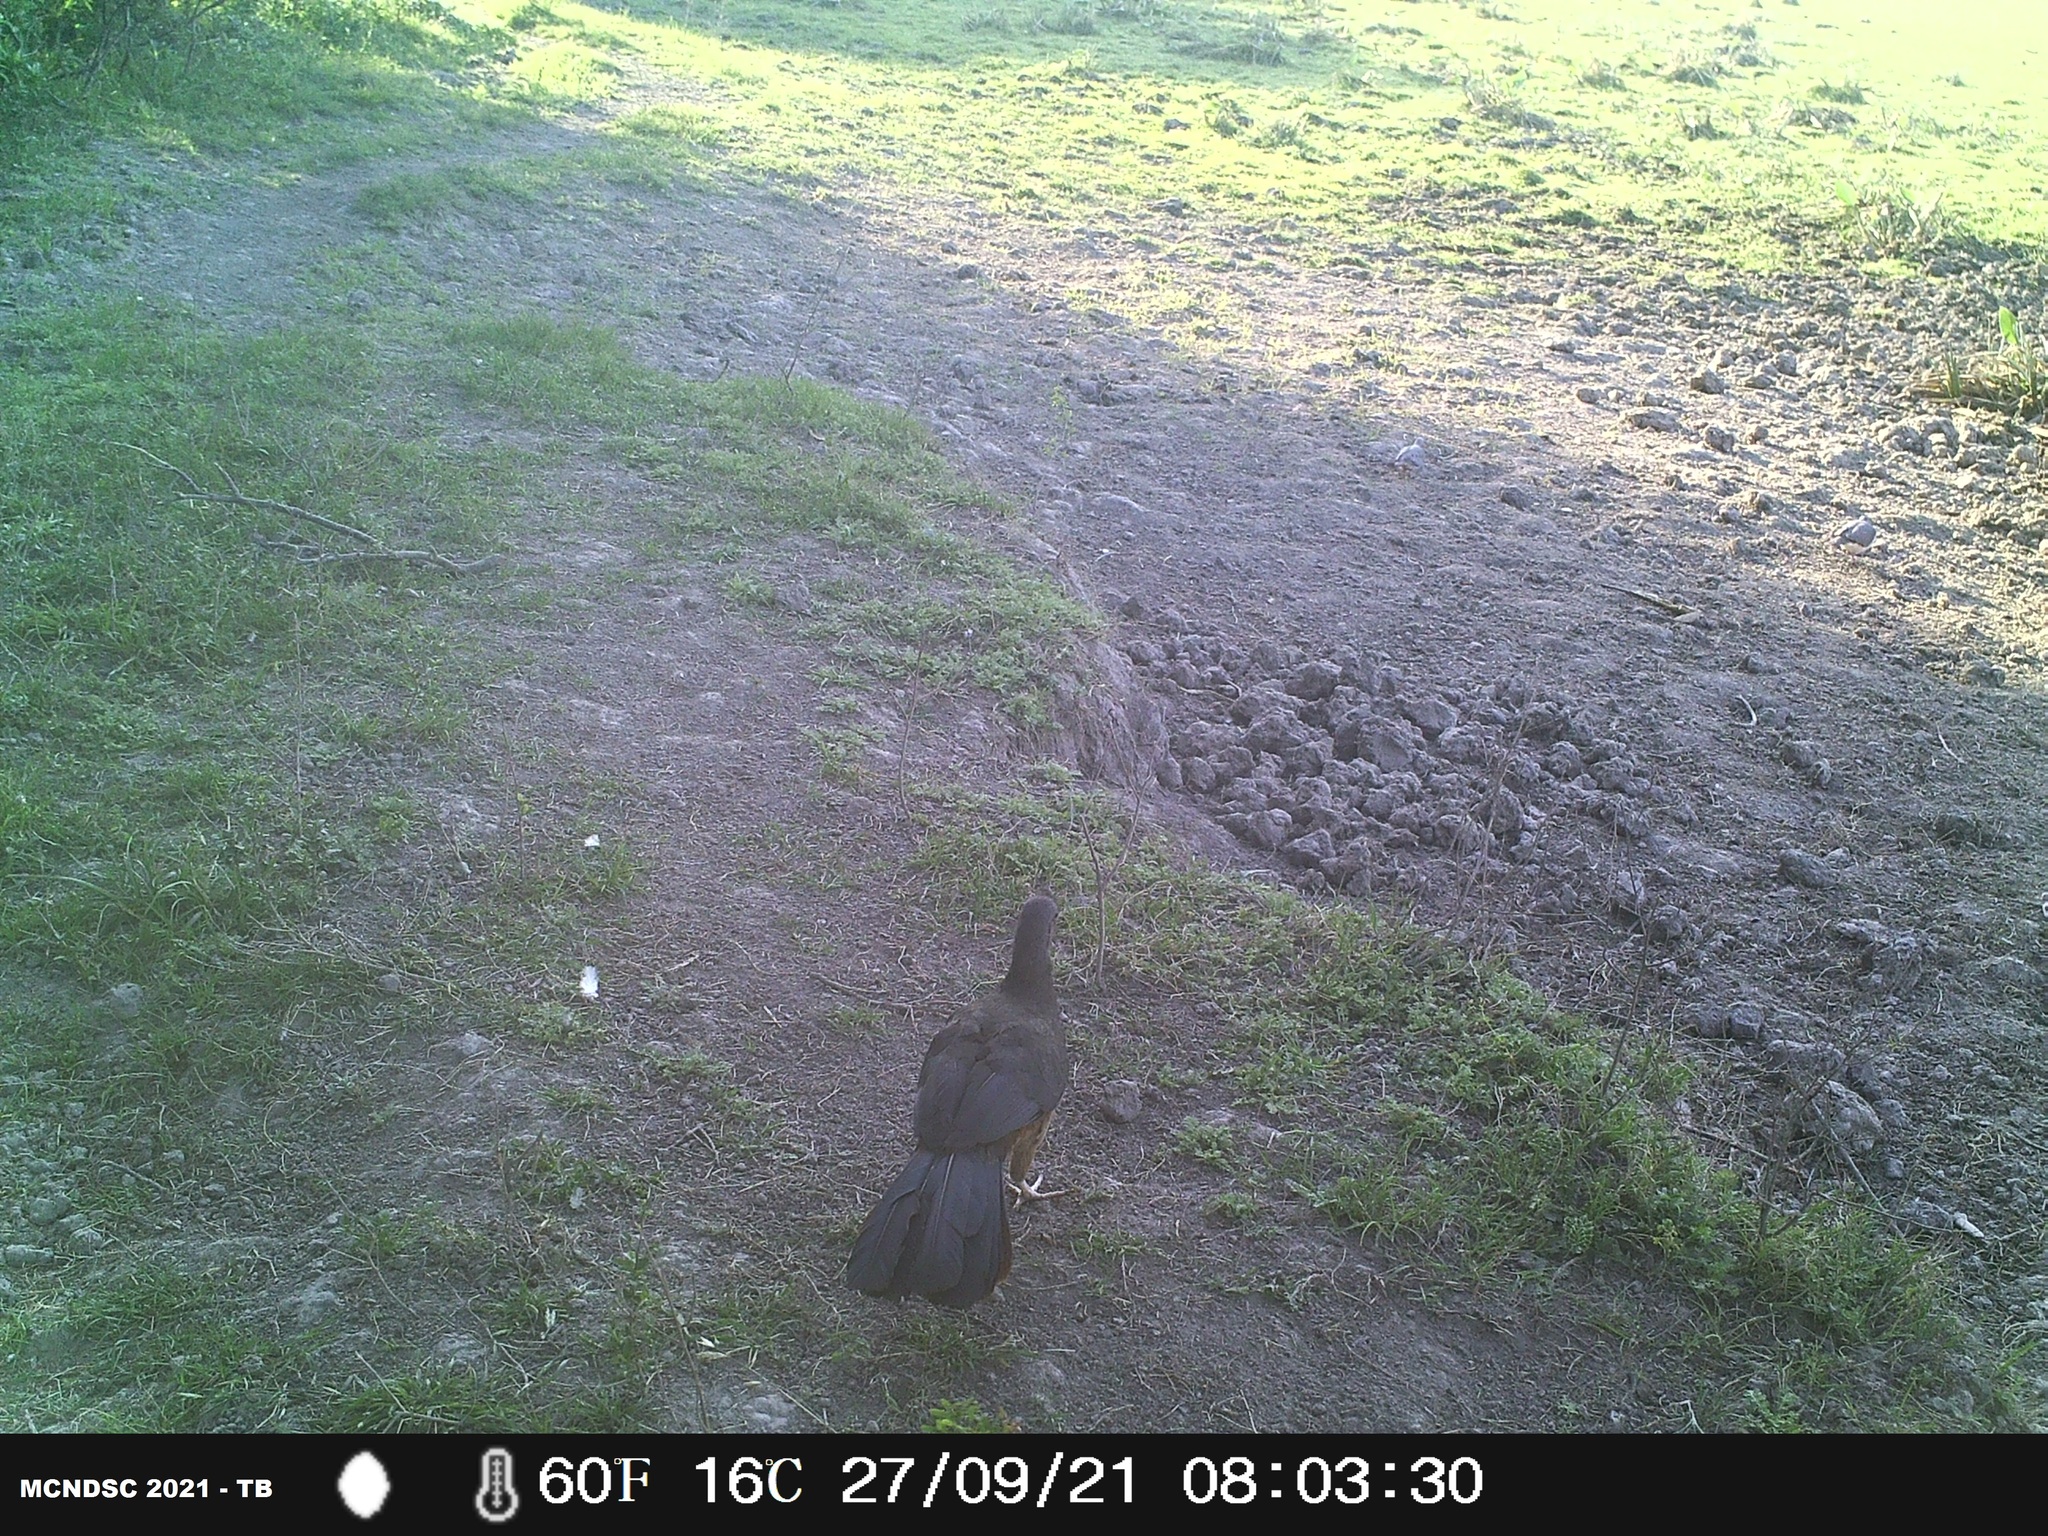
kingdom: Animalia
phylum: Chordata
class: Aves
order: Galliformes
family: Cracidae
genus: Ortalis
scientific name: Ortalis canicollis
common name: Chaco chachalaca
